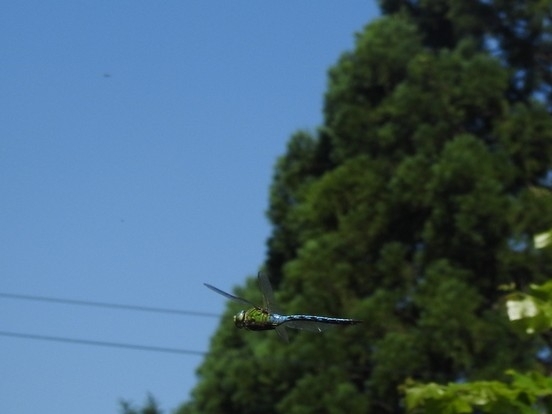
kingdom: Animalia
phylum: Arthropoda
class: Insecta
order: Odonata
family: Aeshnidae
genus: Anax
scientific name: Anax imperator
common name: Emperor dragonfly
